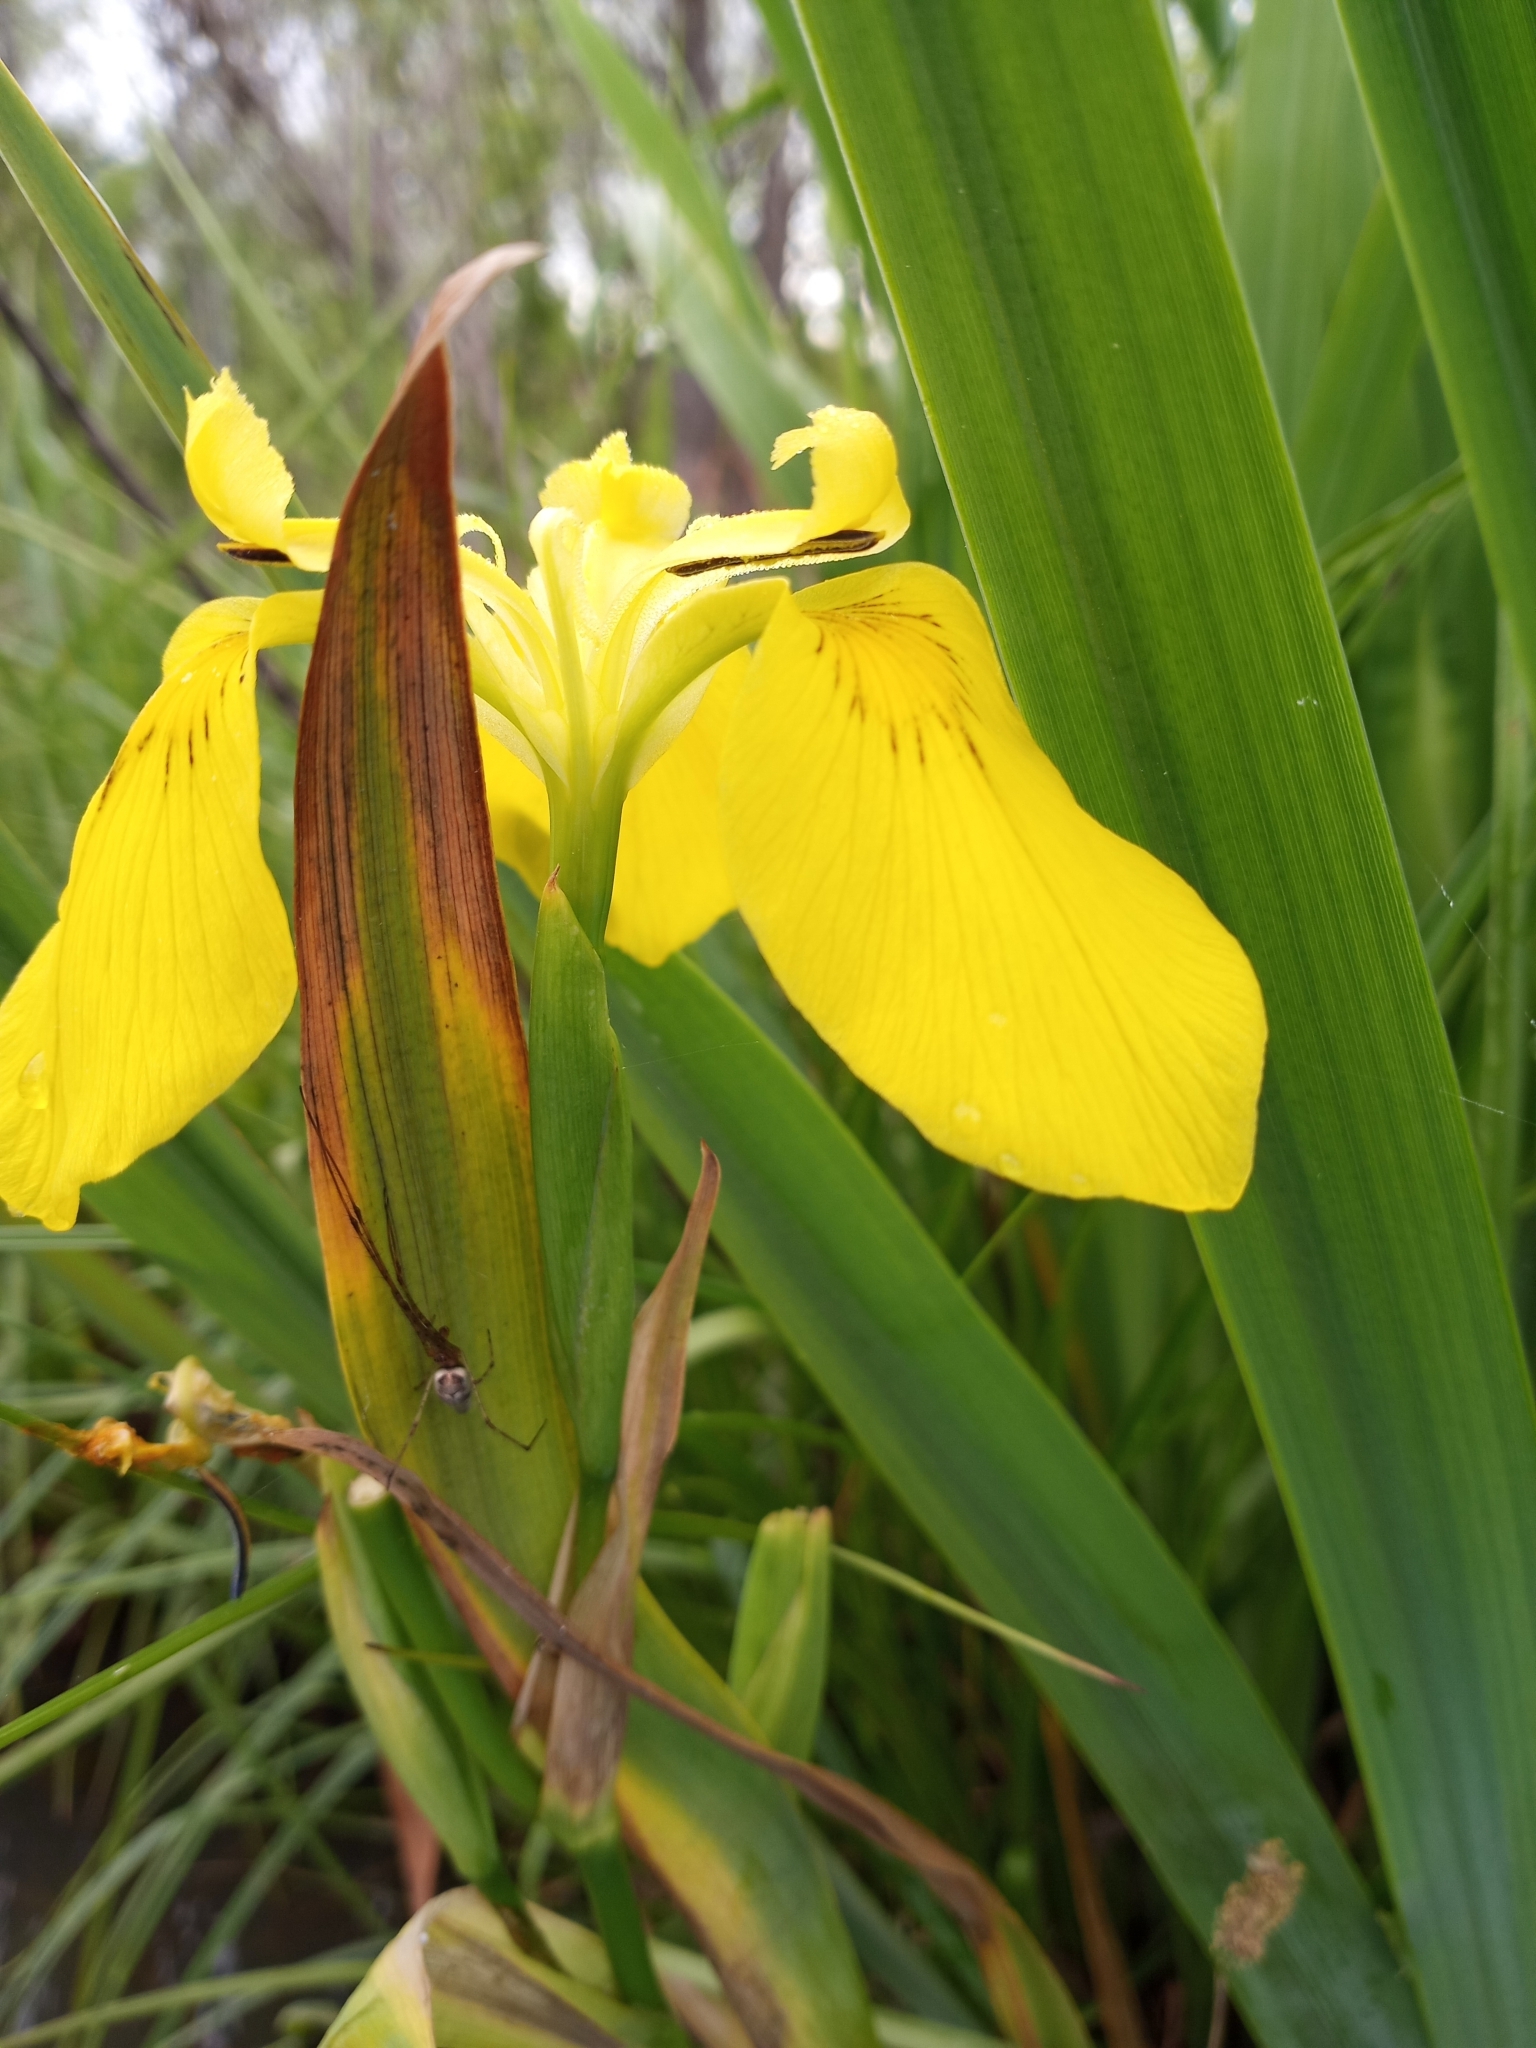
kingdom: Plantae
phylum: Tracheophyta
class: Liliopsida
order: Asparagales
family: Iridaceae
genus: Iris
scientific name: Iris pseudacorus
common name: Yellow flag
